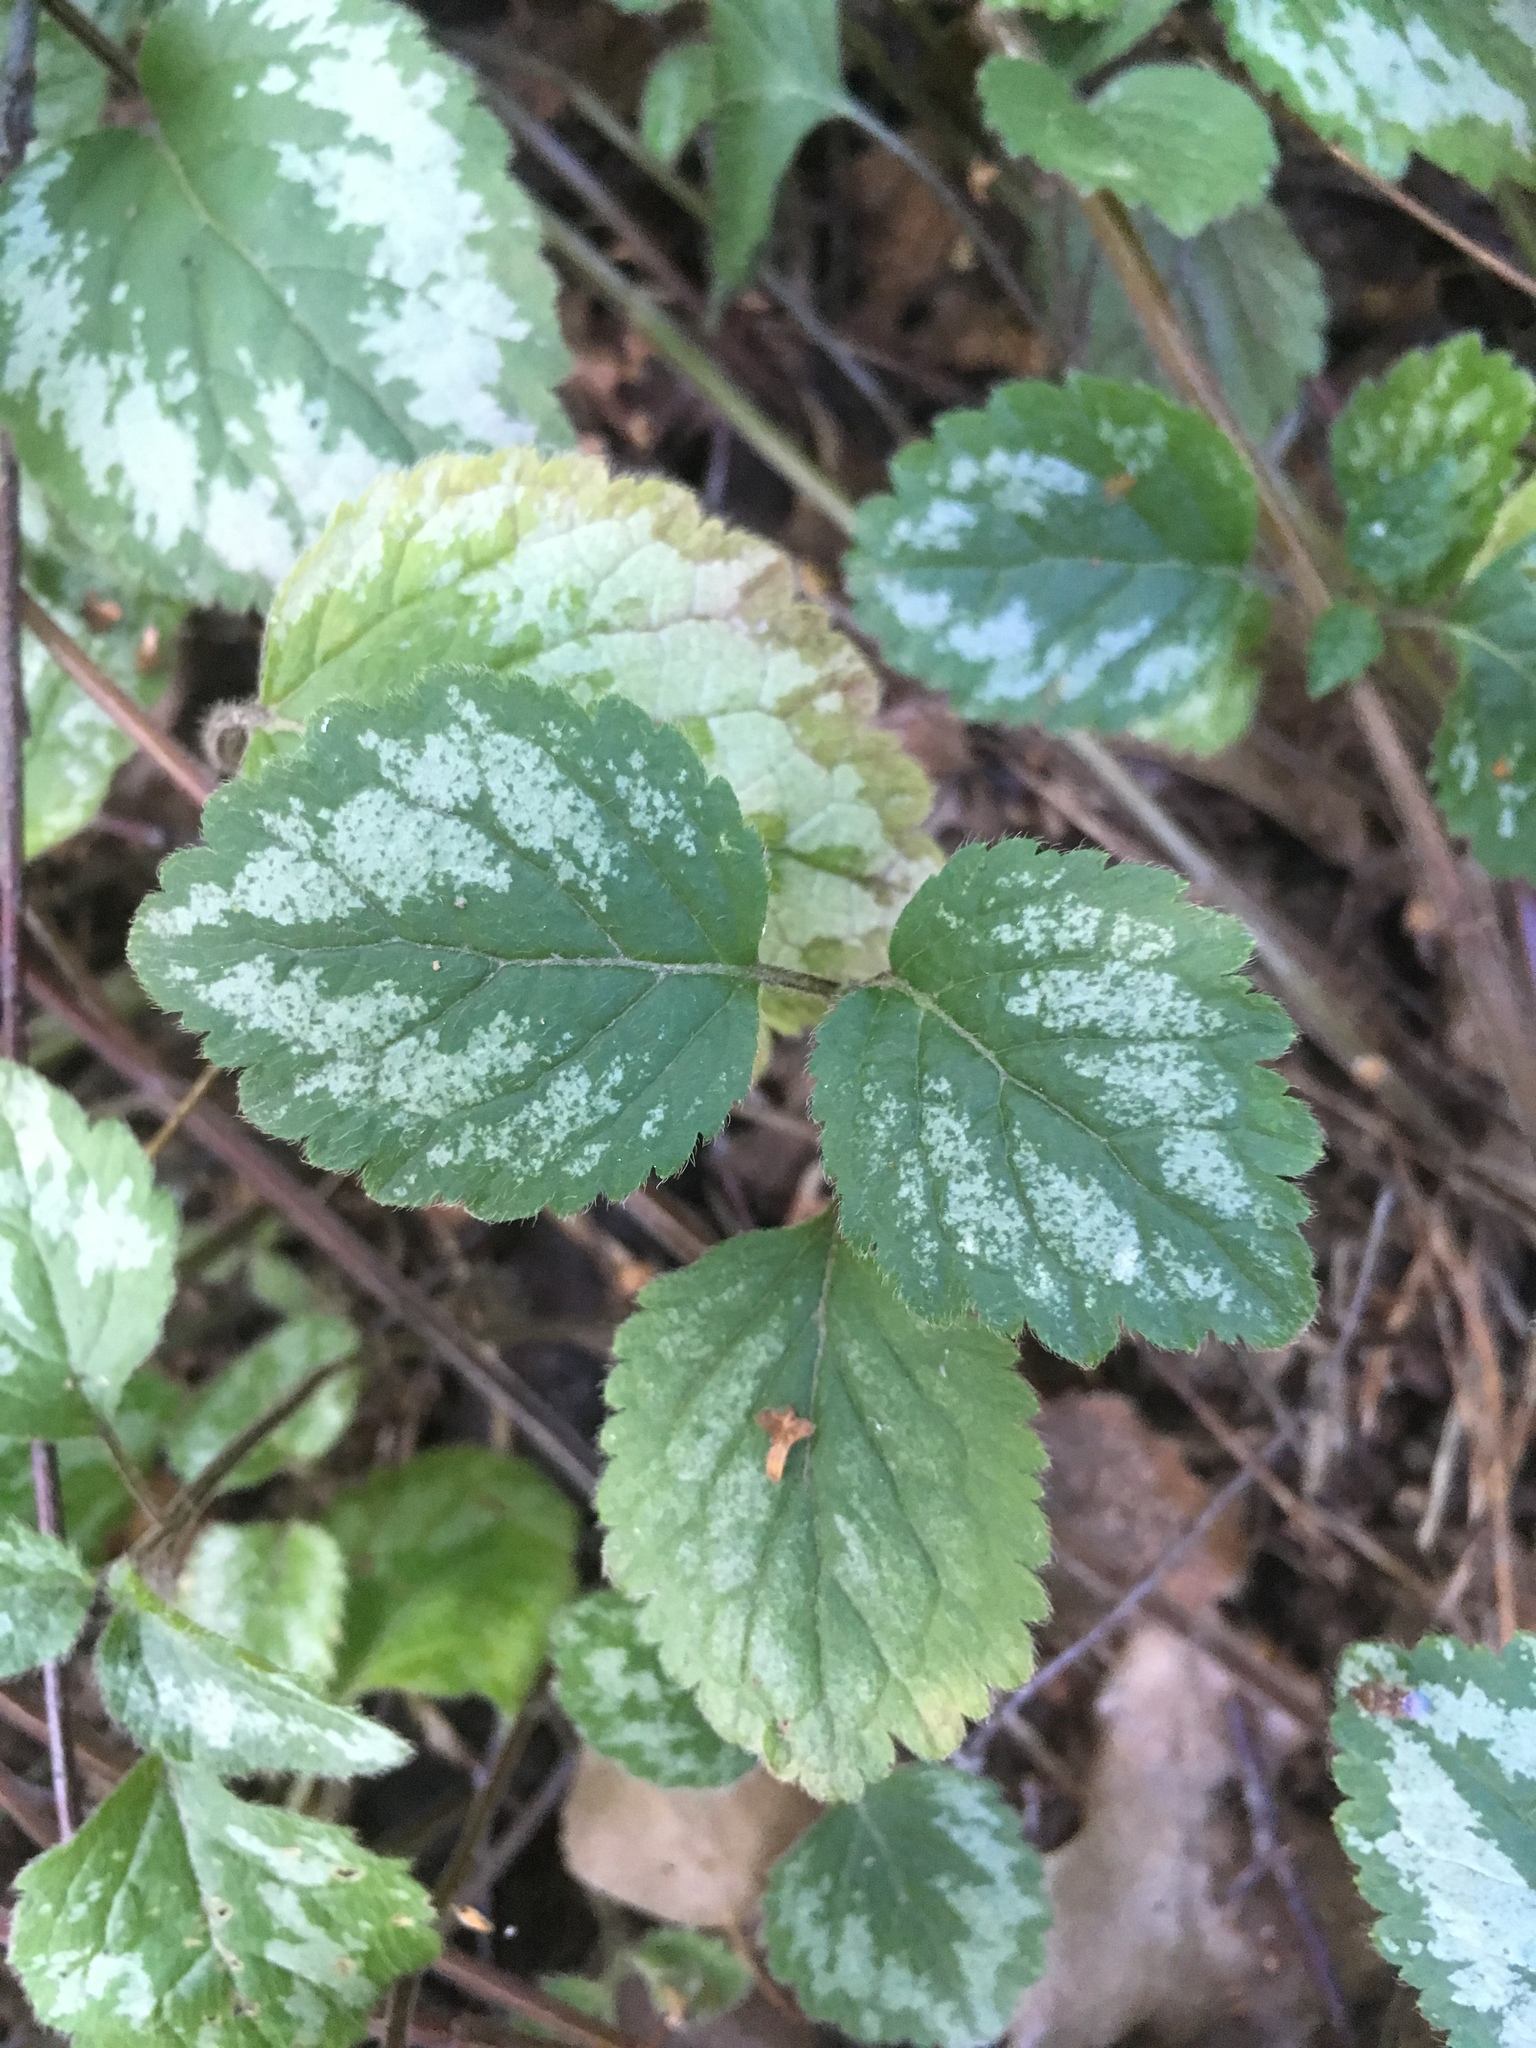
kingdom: Plantae
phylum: Tracheophyta
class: Magnoliopsida
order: Lamiales
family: Lamiaceae
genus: Lamium
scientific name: Lamium galeobdolon
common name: Yellow archangel
